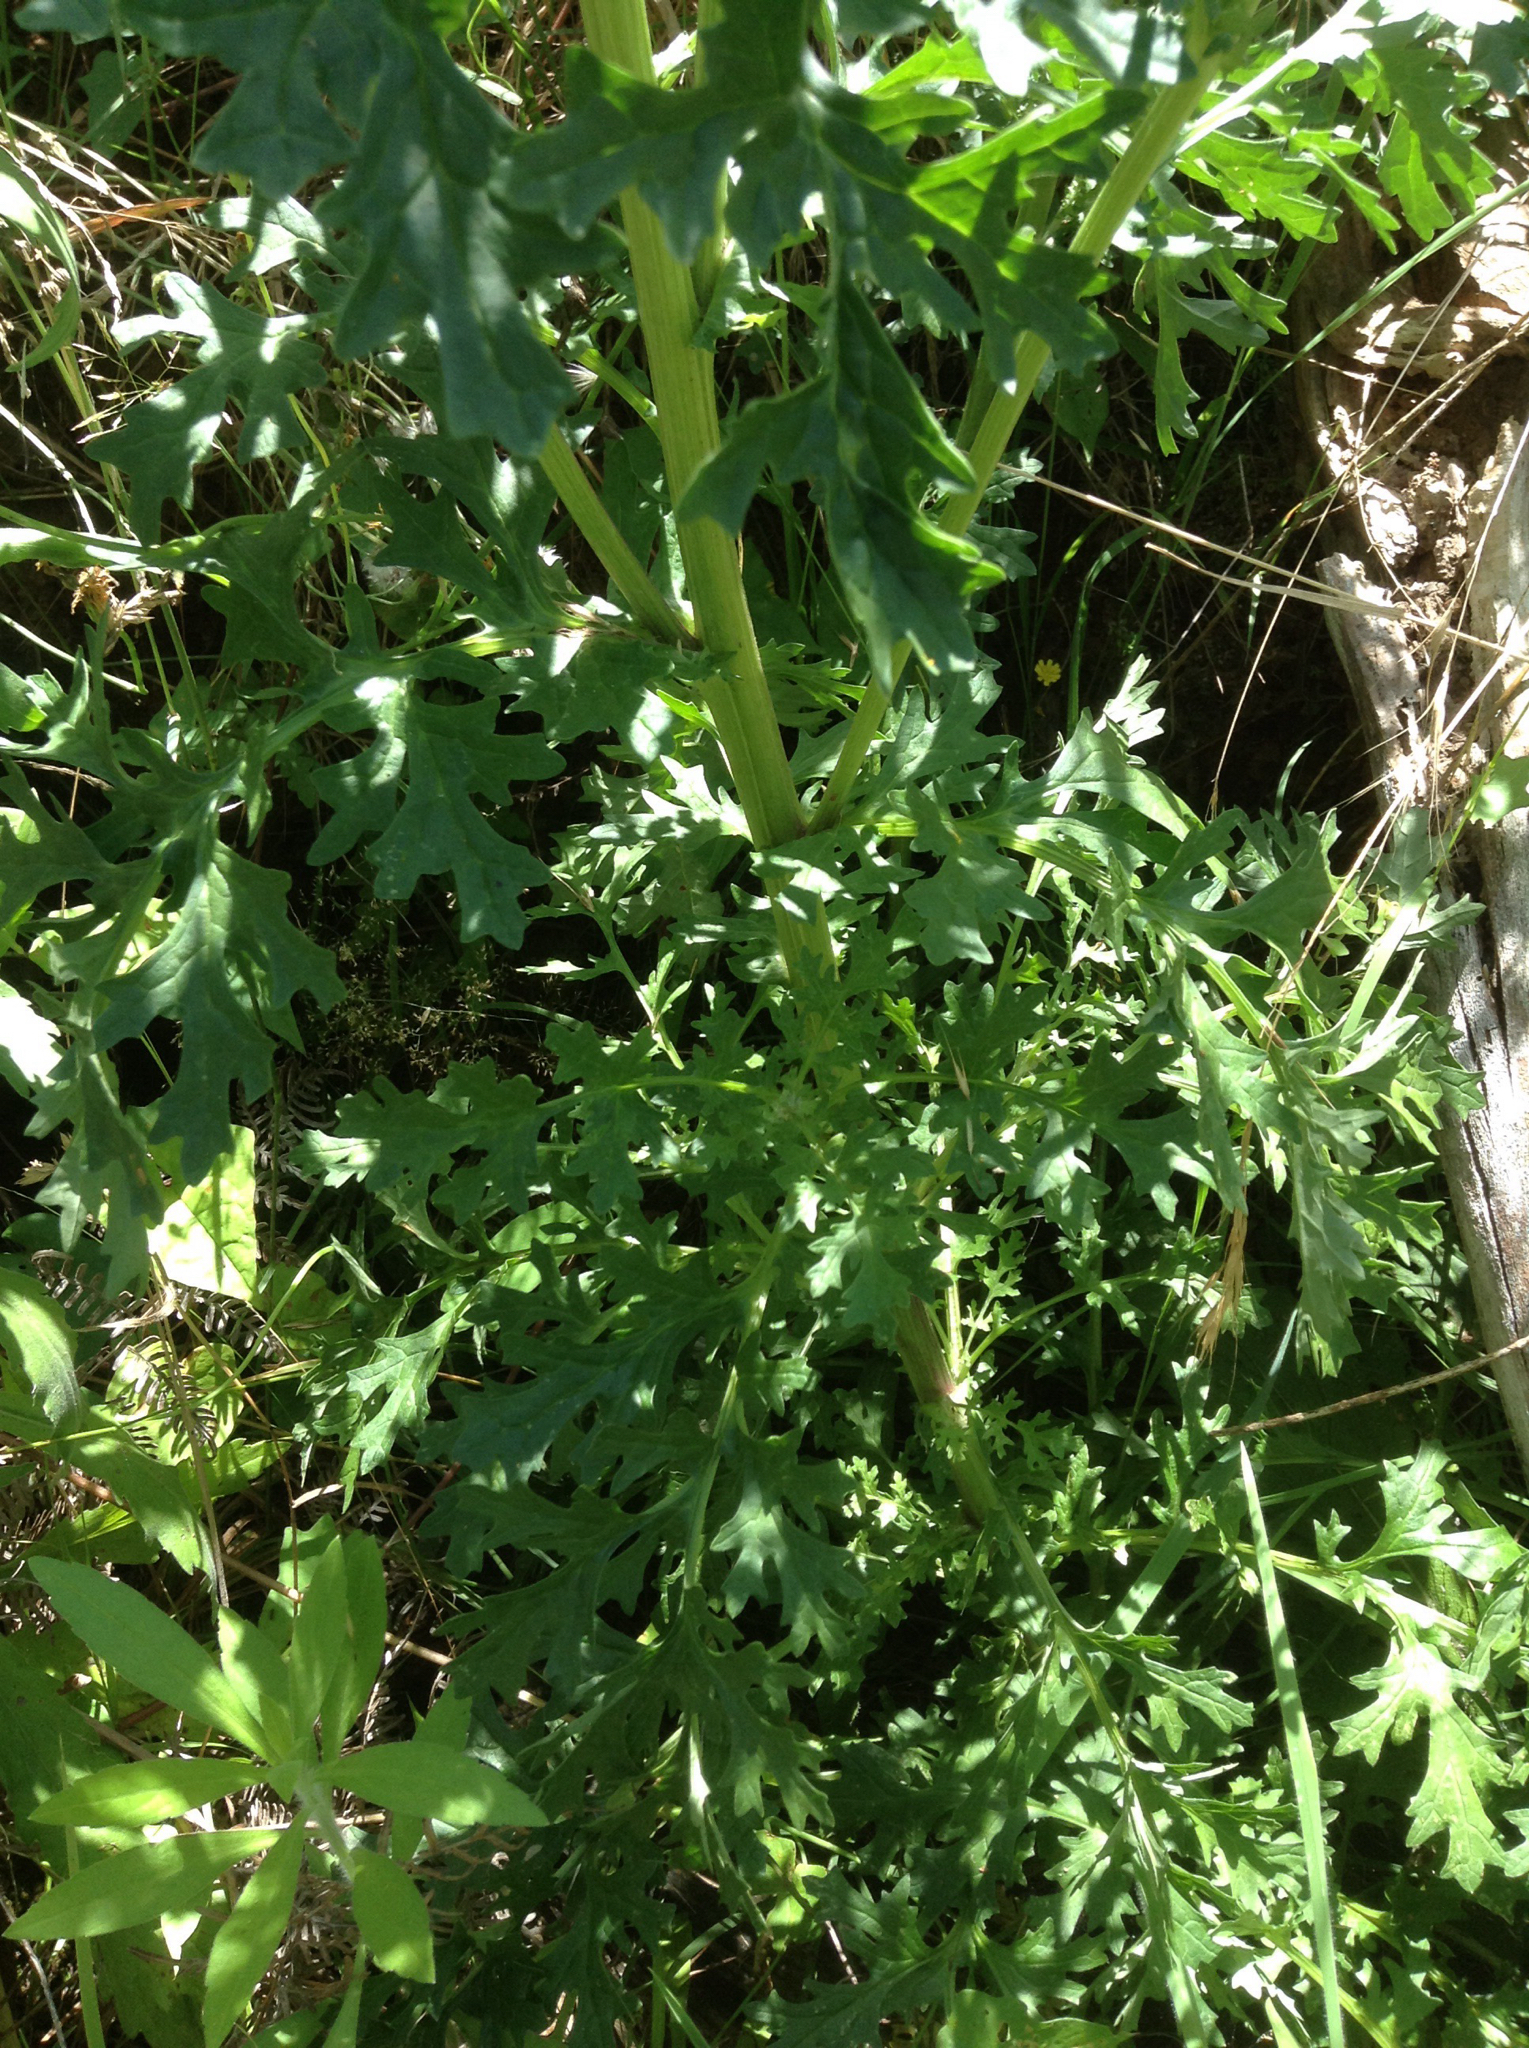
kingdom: Plantae
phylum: Tracheophyta
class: Magnoliopsida
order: Asterales
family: Asteraceae
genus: Jacobaea
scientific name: Jacobaea vulgaris
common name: Stinking willie
